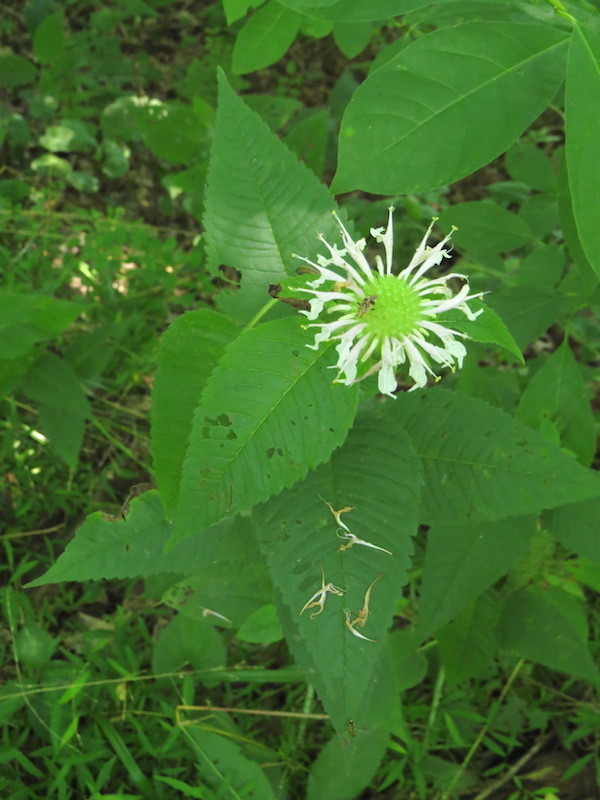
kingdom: Plantae
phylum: Tracheophyta
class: Magnoliopsida
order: Lamiales
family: Lamiaceae
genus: Monarda
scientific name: Monarda clinopodia
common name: Basil beebalm
